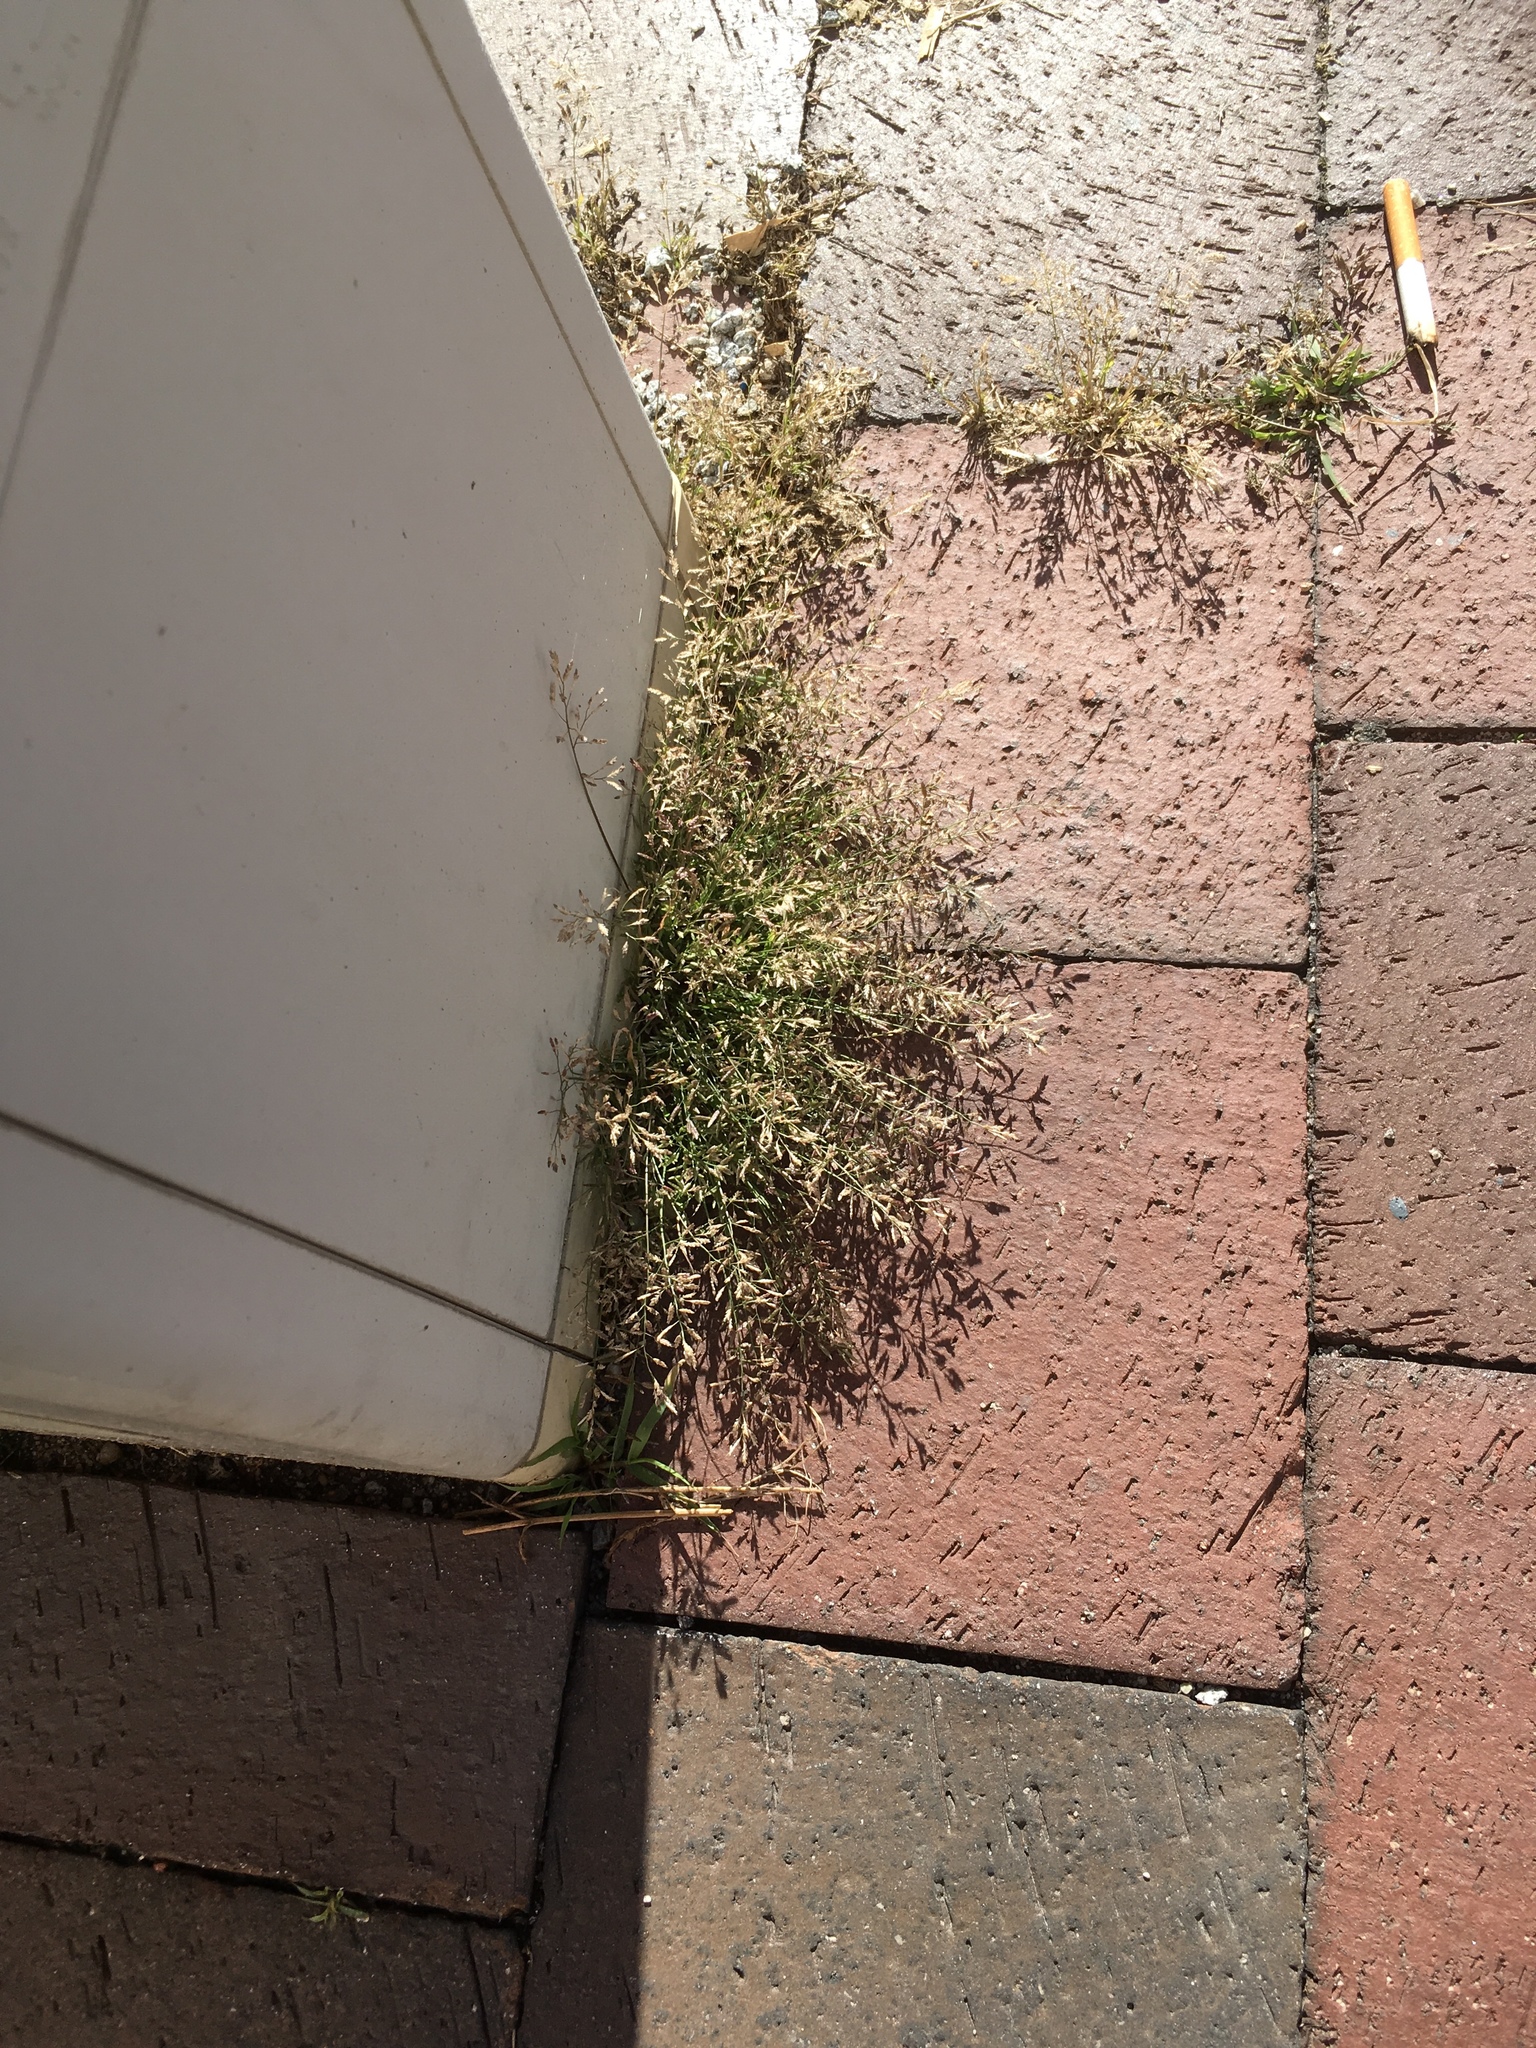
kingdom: Plantae
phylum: Tracheophyta
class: Liliopsida
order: Poales
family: Poaceae
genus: Eragrostis
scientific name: Eragrostis minor
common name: Small love-grass
